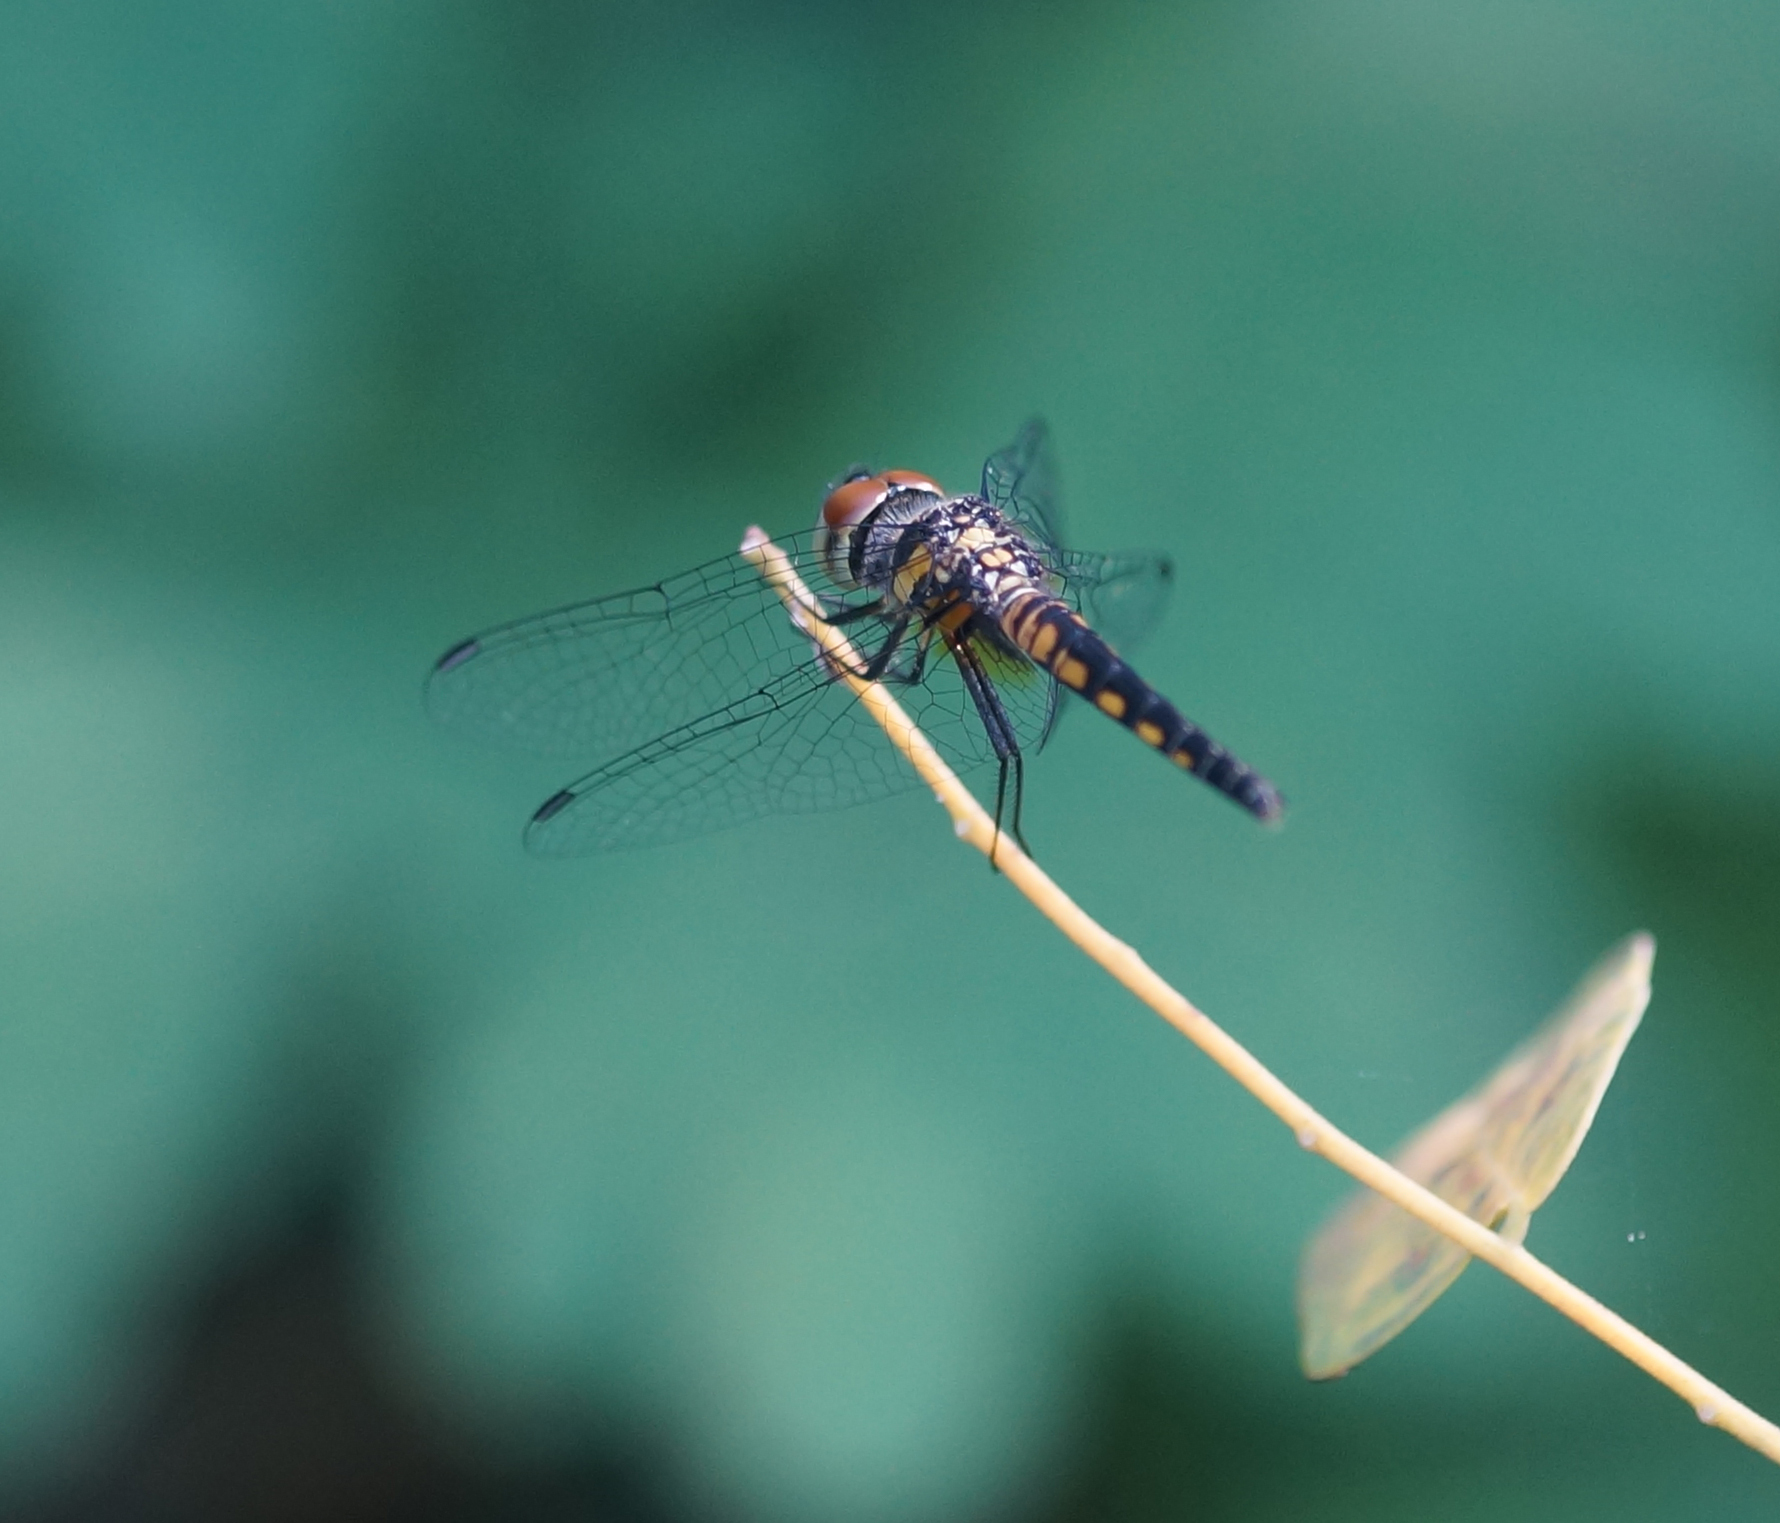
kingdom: Animalia
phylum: Arthropoda
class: Insecta
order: Odonata
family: Libellulidae
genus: Aethriamanta
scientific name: Aethriamanta aethra
